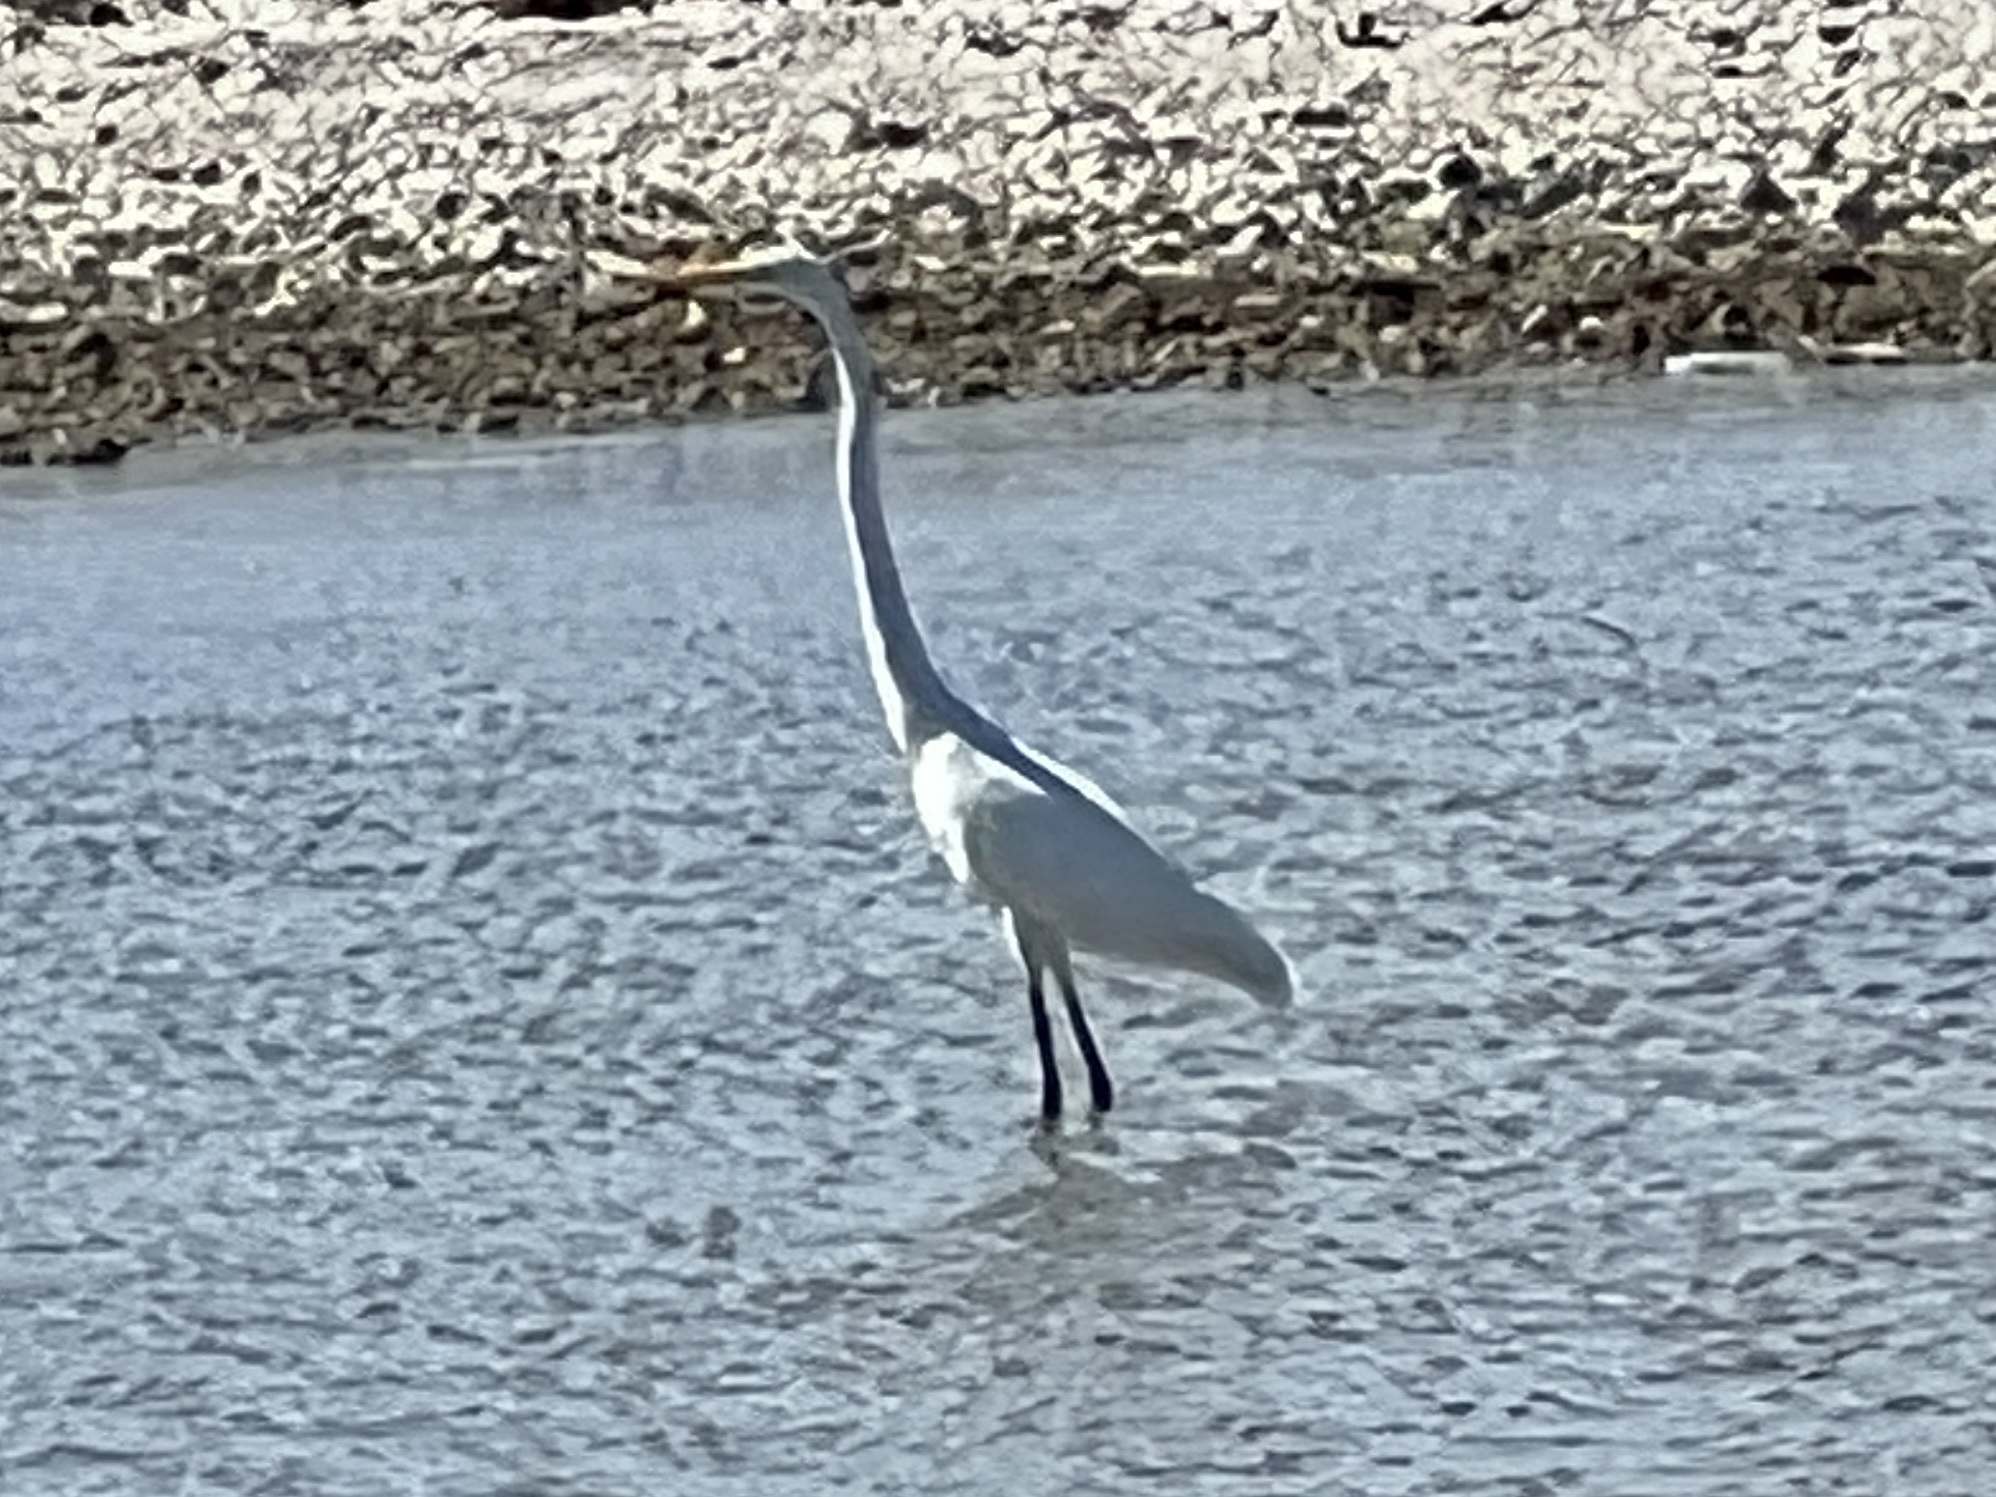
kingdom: Animalia
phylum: Chordata
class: Aves
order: Pelecaniformes
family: Ardeidae
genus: Ardea
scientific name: Ardea alba
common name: Great egret
